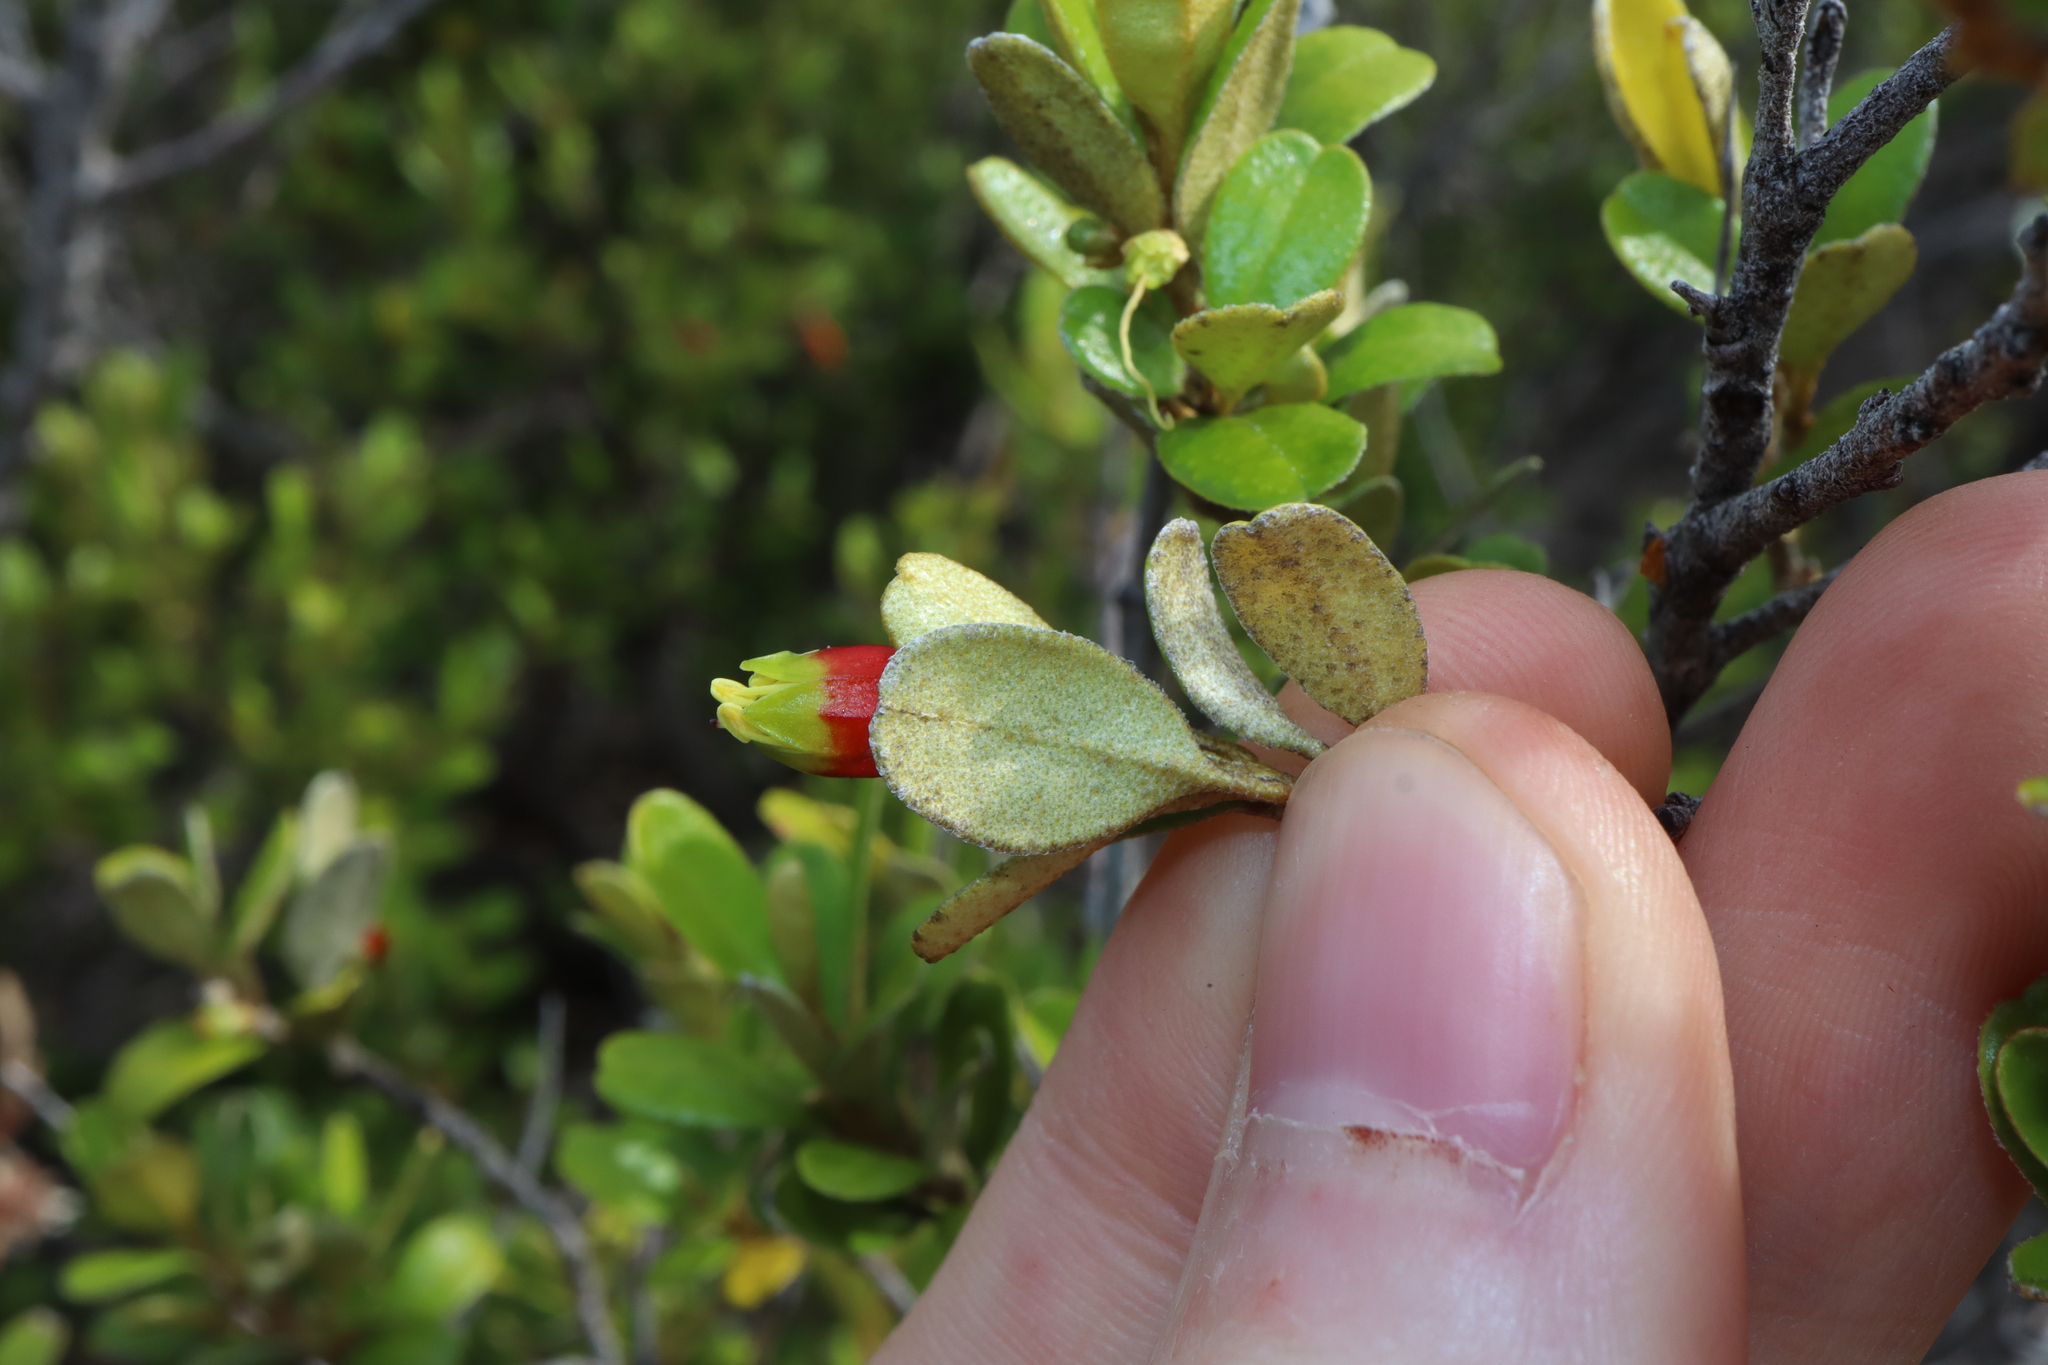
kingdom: Plantae
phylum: Tracheophyta
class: Magnoliopsida
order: Sapindales
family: Rutaceae
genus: Nematolepis
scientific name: Nematolepis phebalioides
